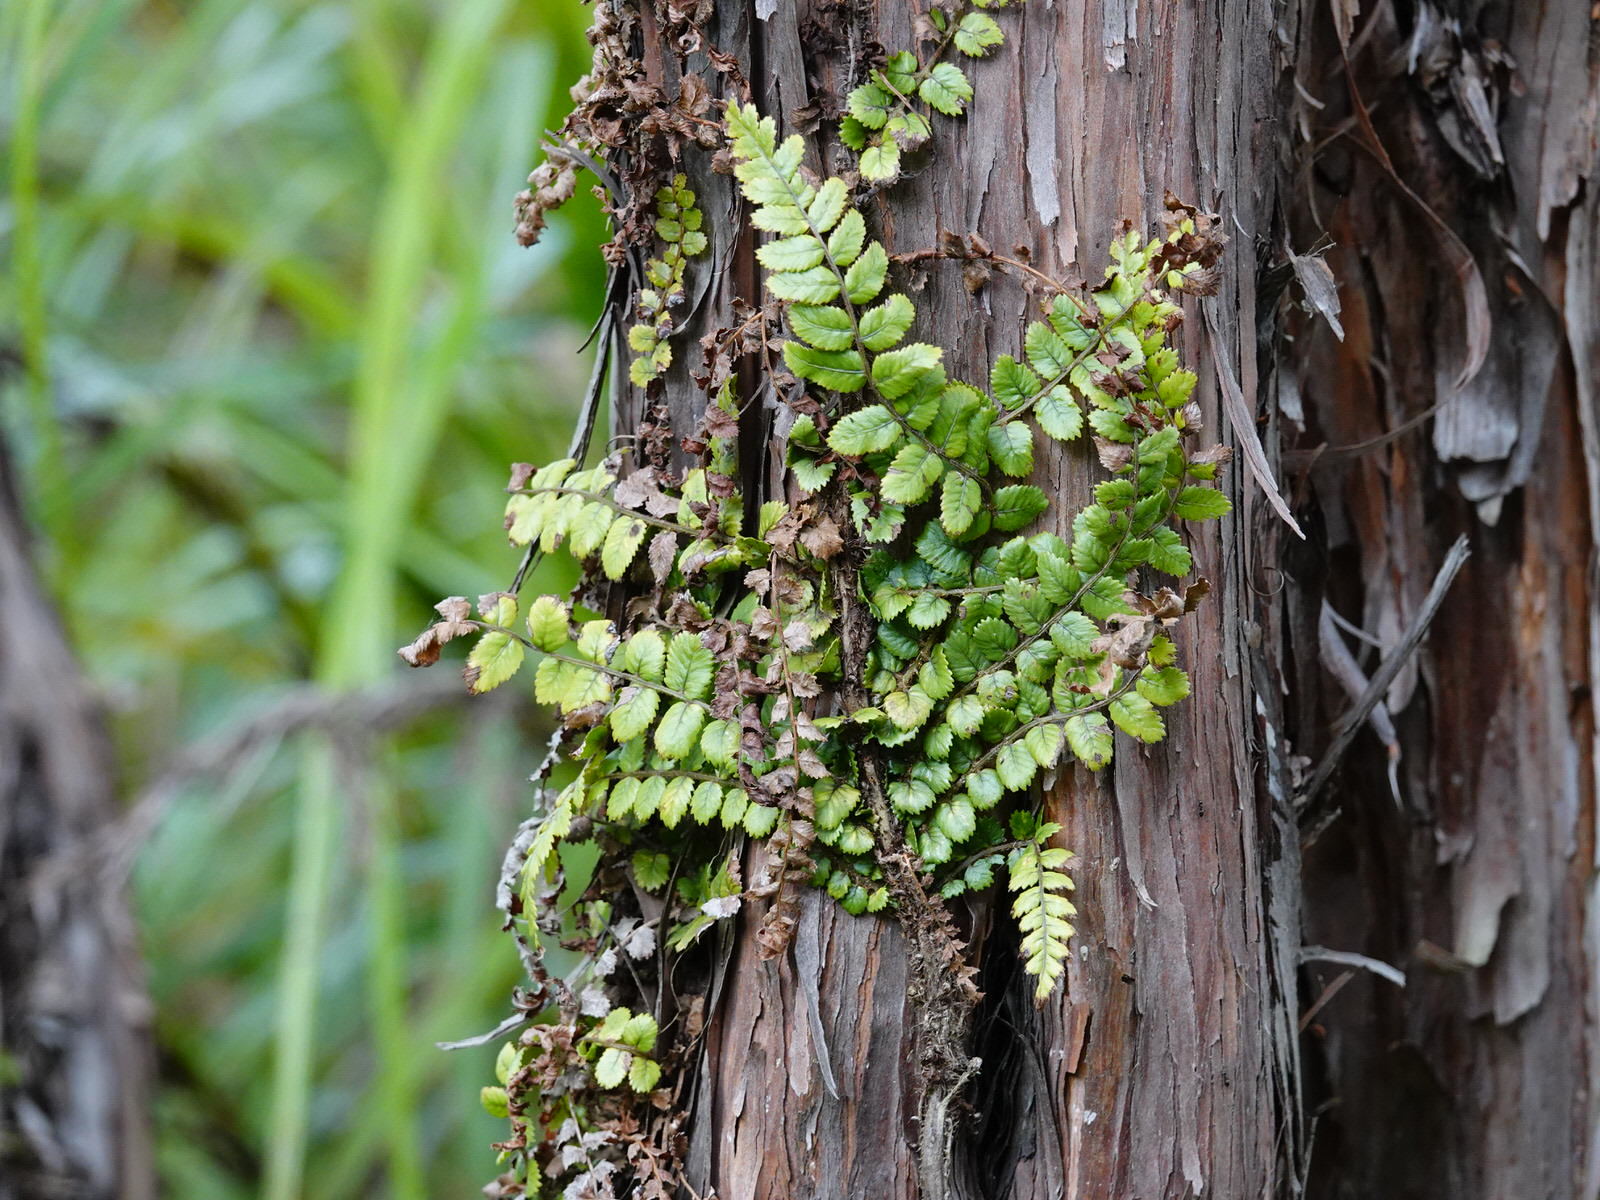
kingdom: Plantae
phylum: Tracheophyta
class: Polypodiopsida
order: Polypodiales
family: Blechnaceae
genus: Icarus
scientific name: Icarus filiformis
